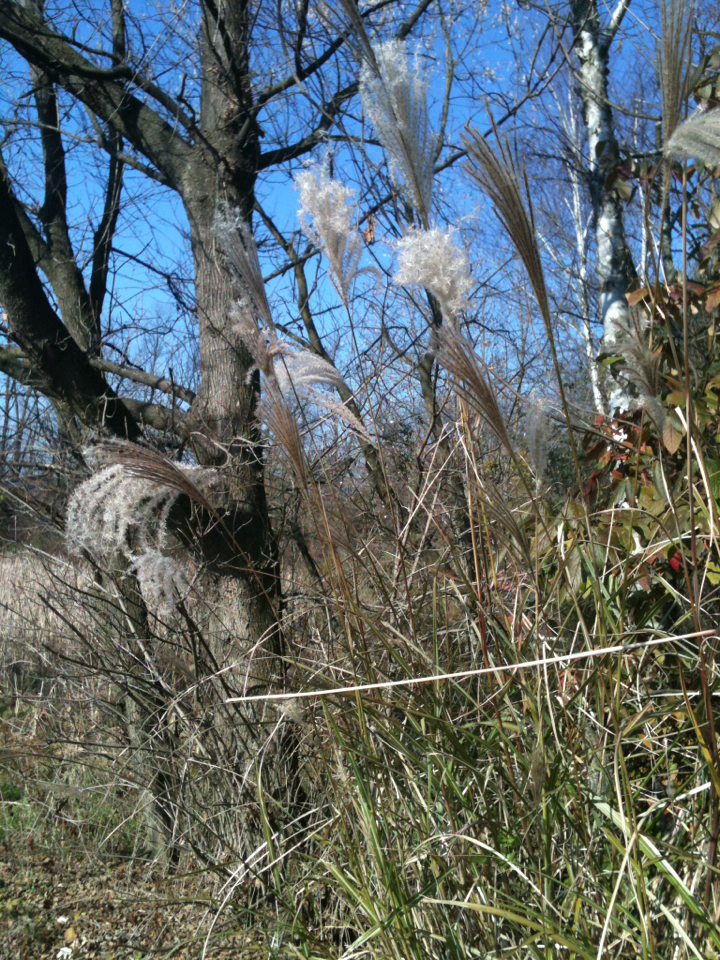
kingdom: Plantae
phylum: Tracheophyta
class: Liliopsida
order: Poales
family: Poaceae
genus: Miscanthus
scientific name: Miscanthus sinensis
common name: Chinese silvergrass
